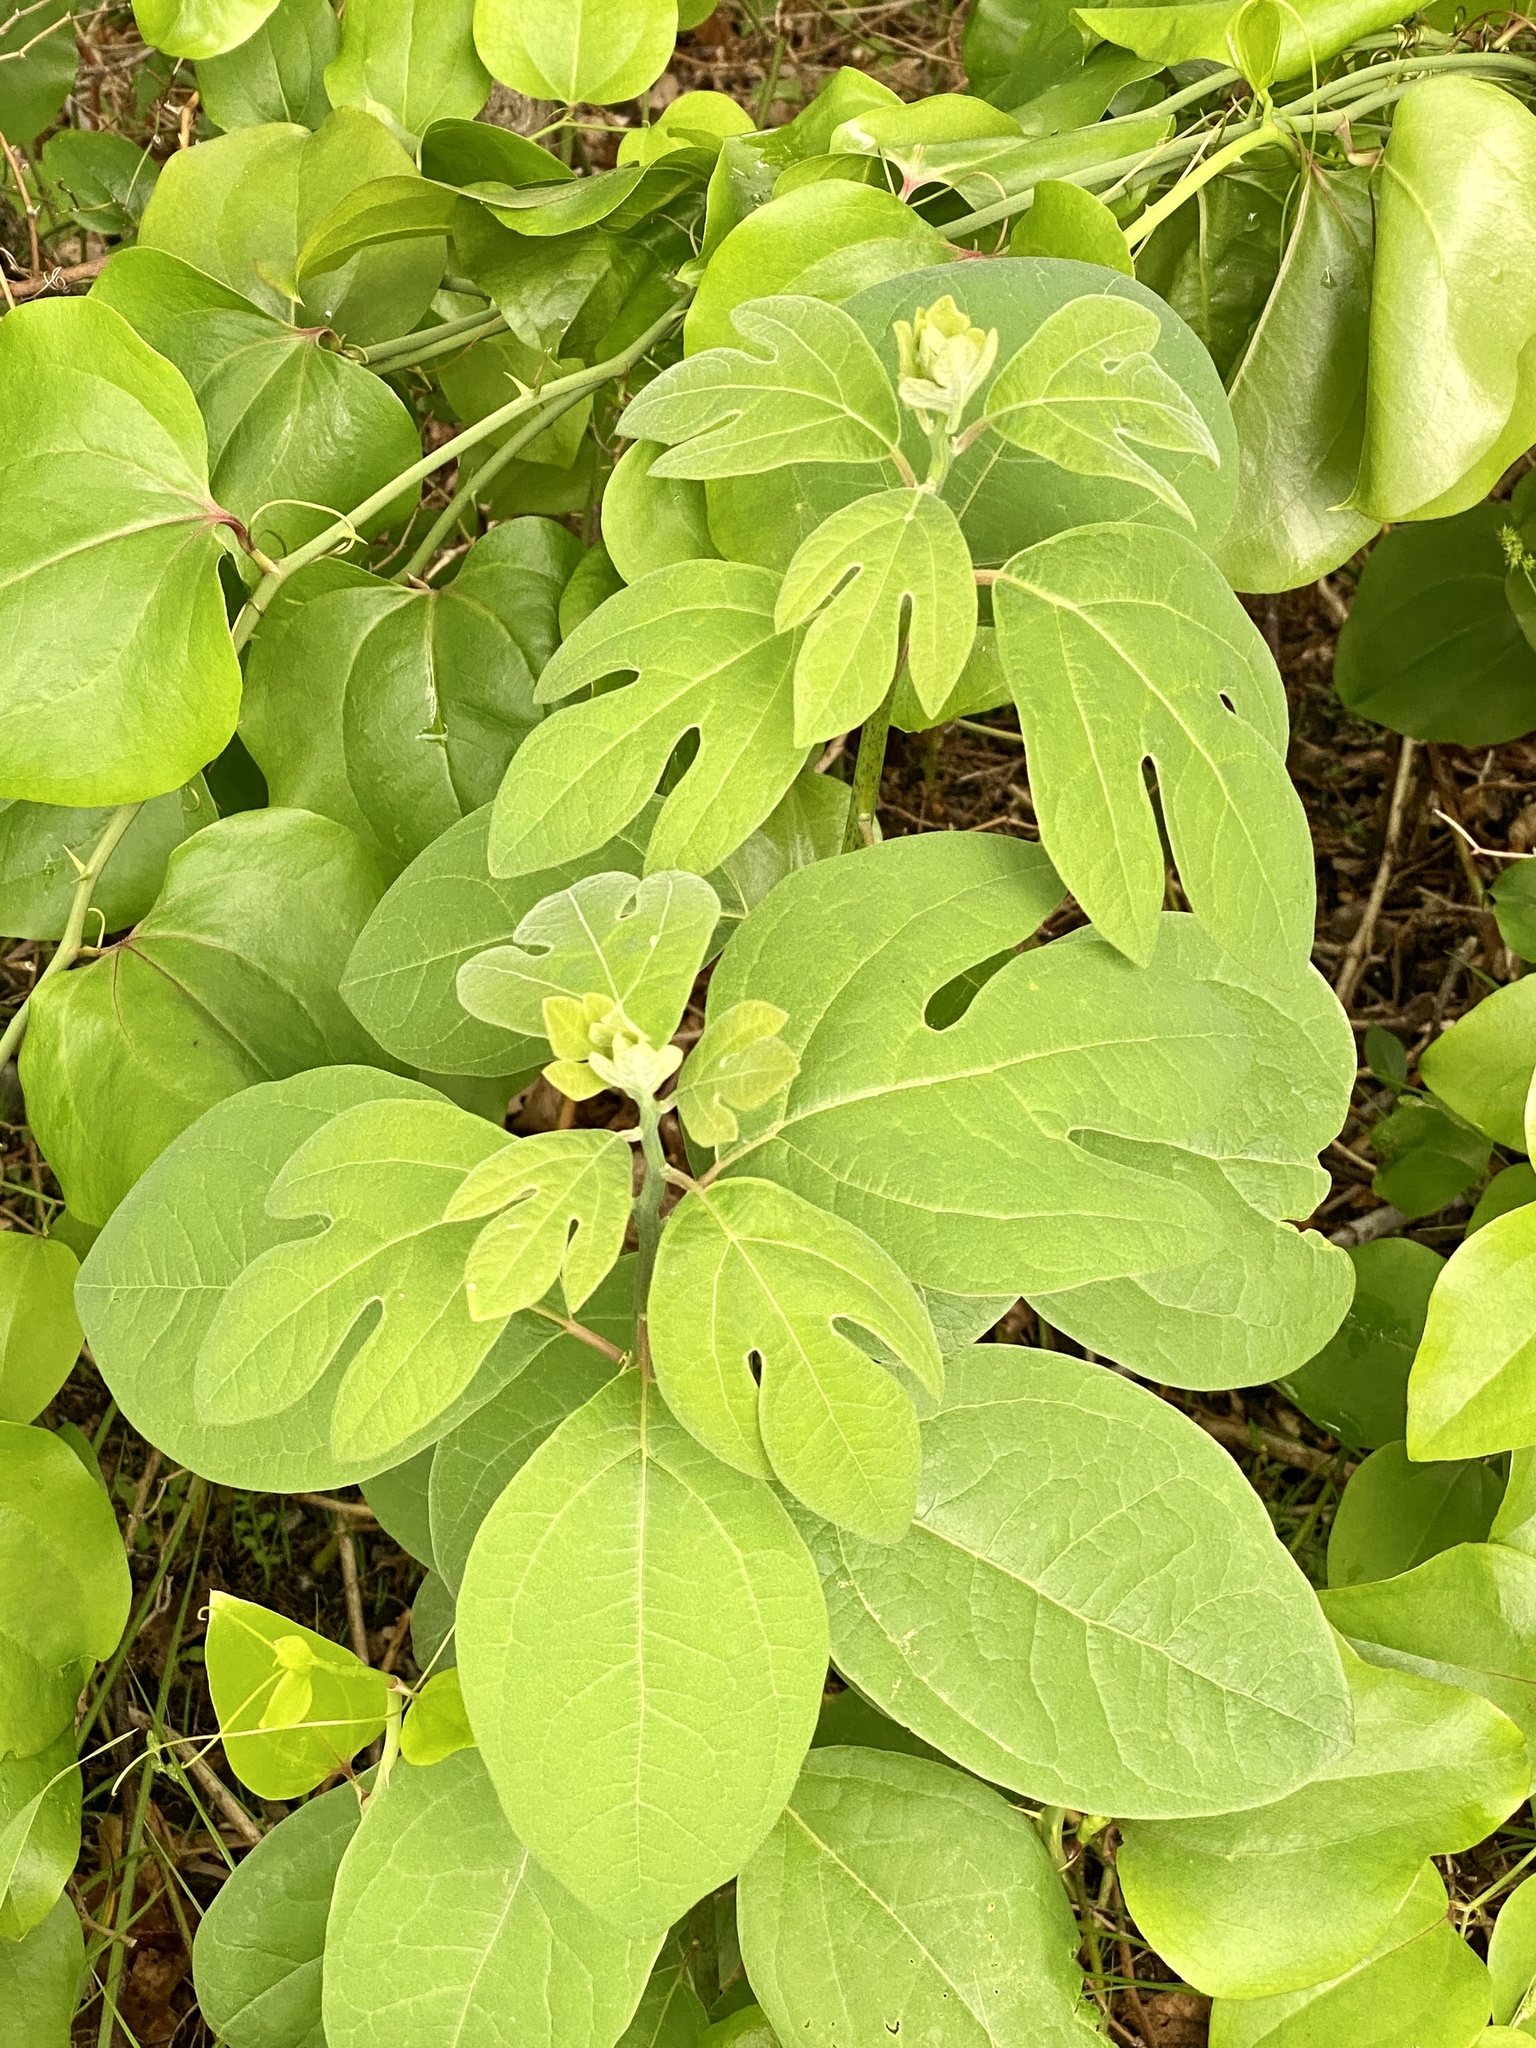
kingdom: Plantae
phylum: Tracheophyta
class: Magnoliopsida
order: Laurales
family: Lauraceae
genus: Sassafras
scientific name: Sassafras albidum
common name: Sassafras
